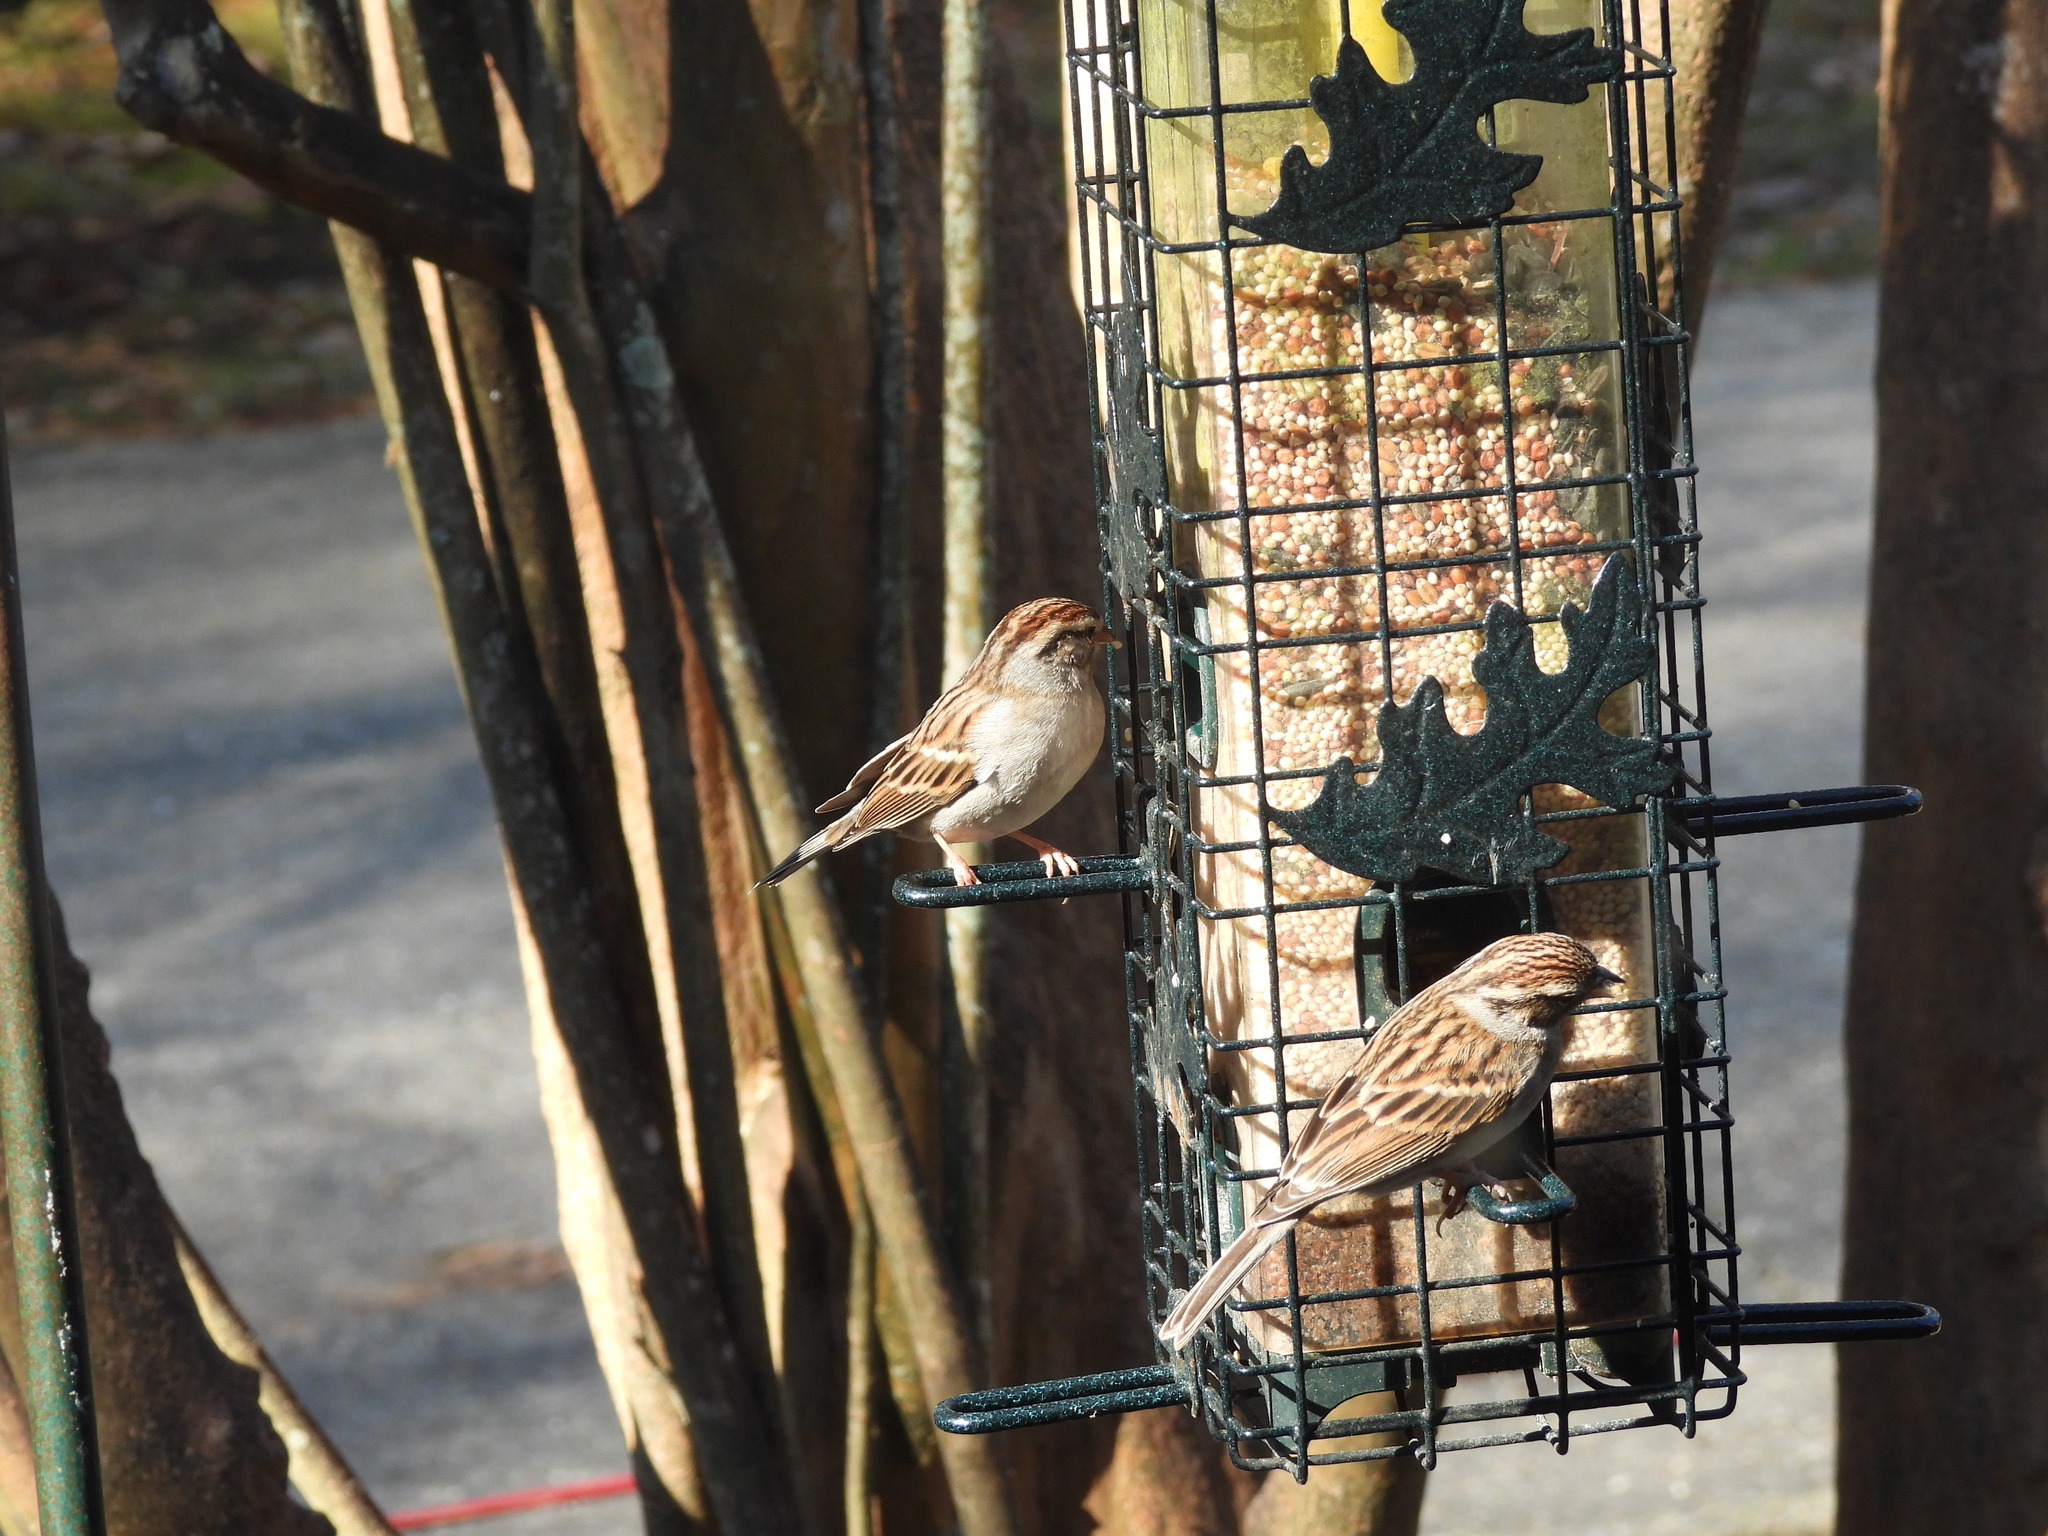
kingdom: Animalia
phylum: Chordata
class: Aves
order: Passeriformes
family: Passerellidae
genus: Spizella
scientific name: Spizella passerina
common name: Chipping sparrow
